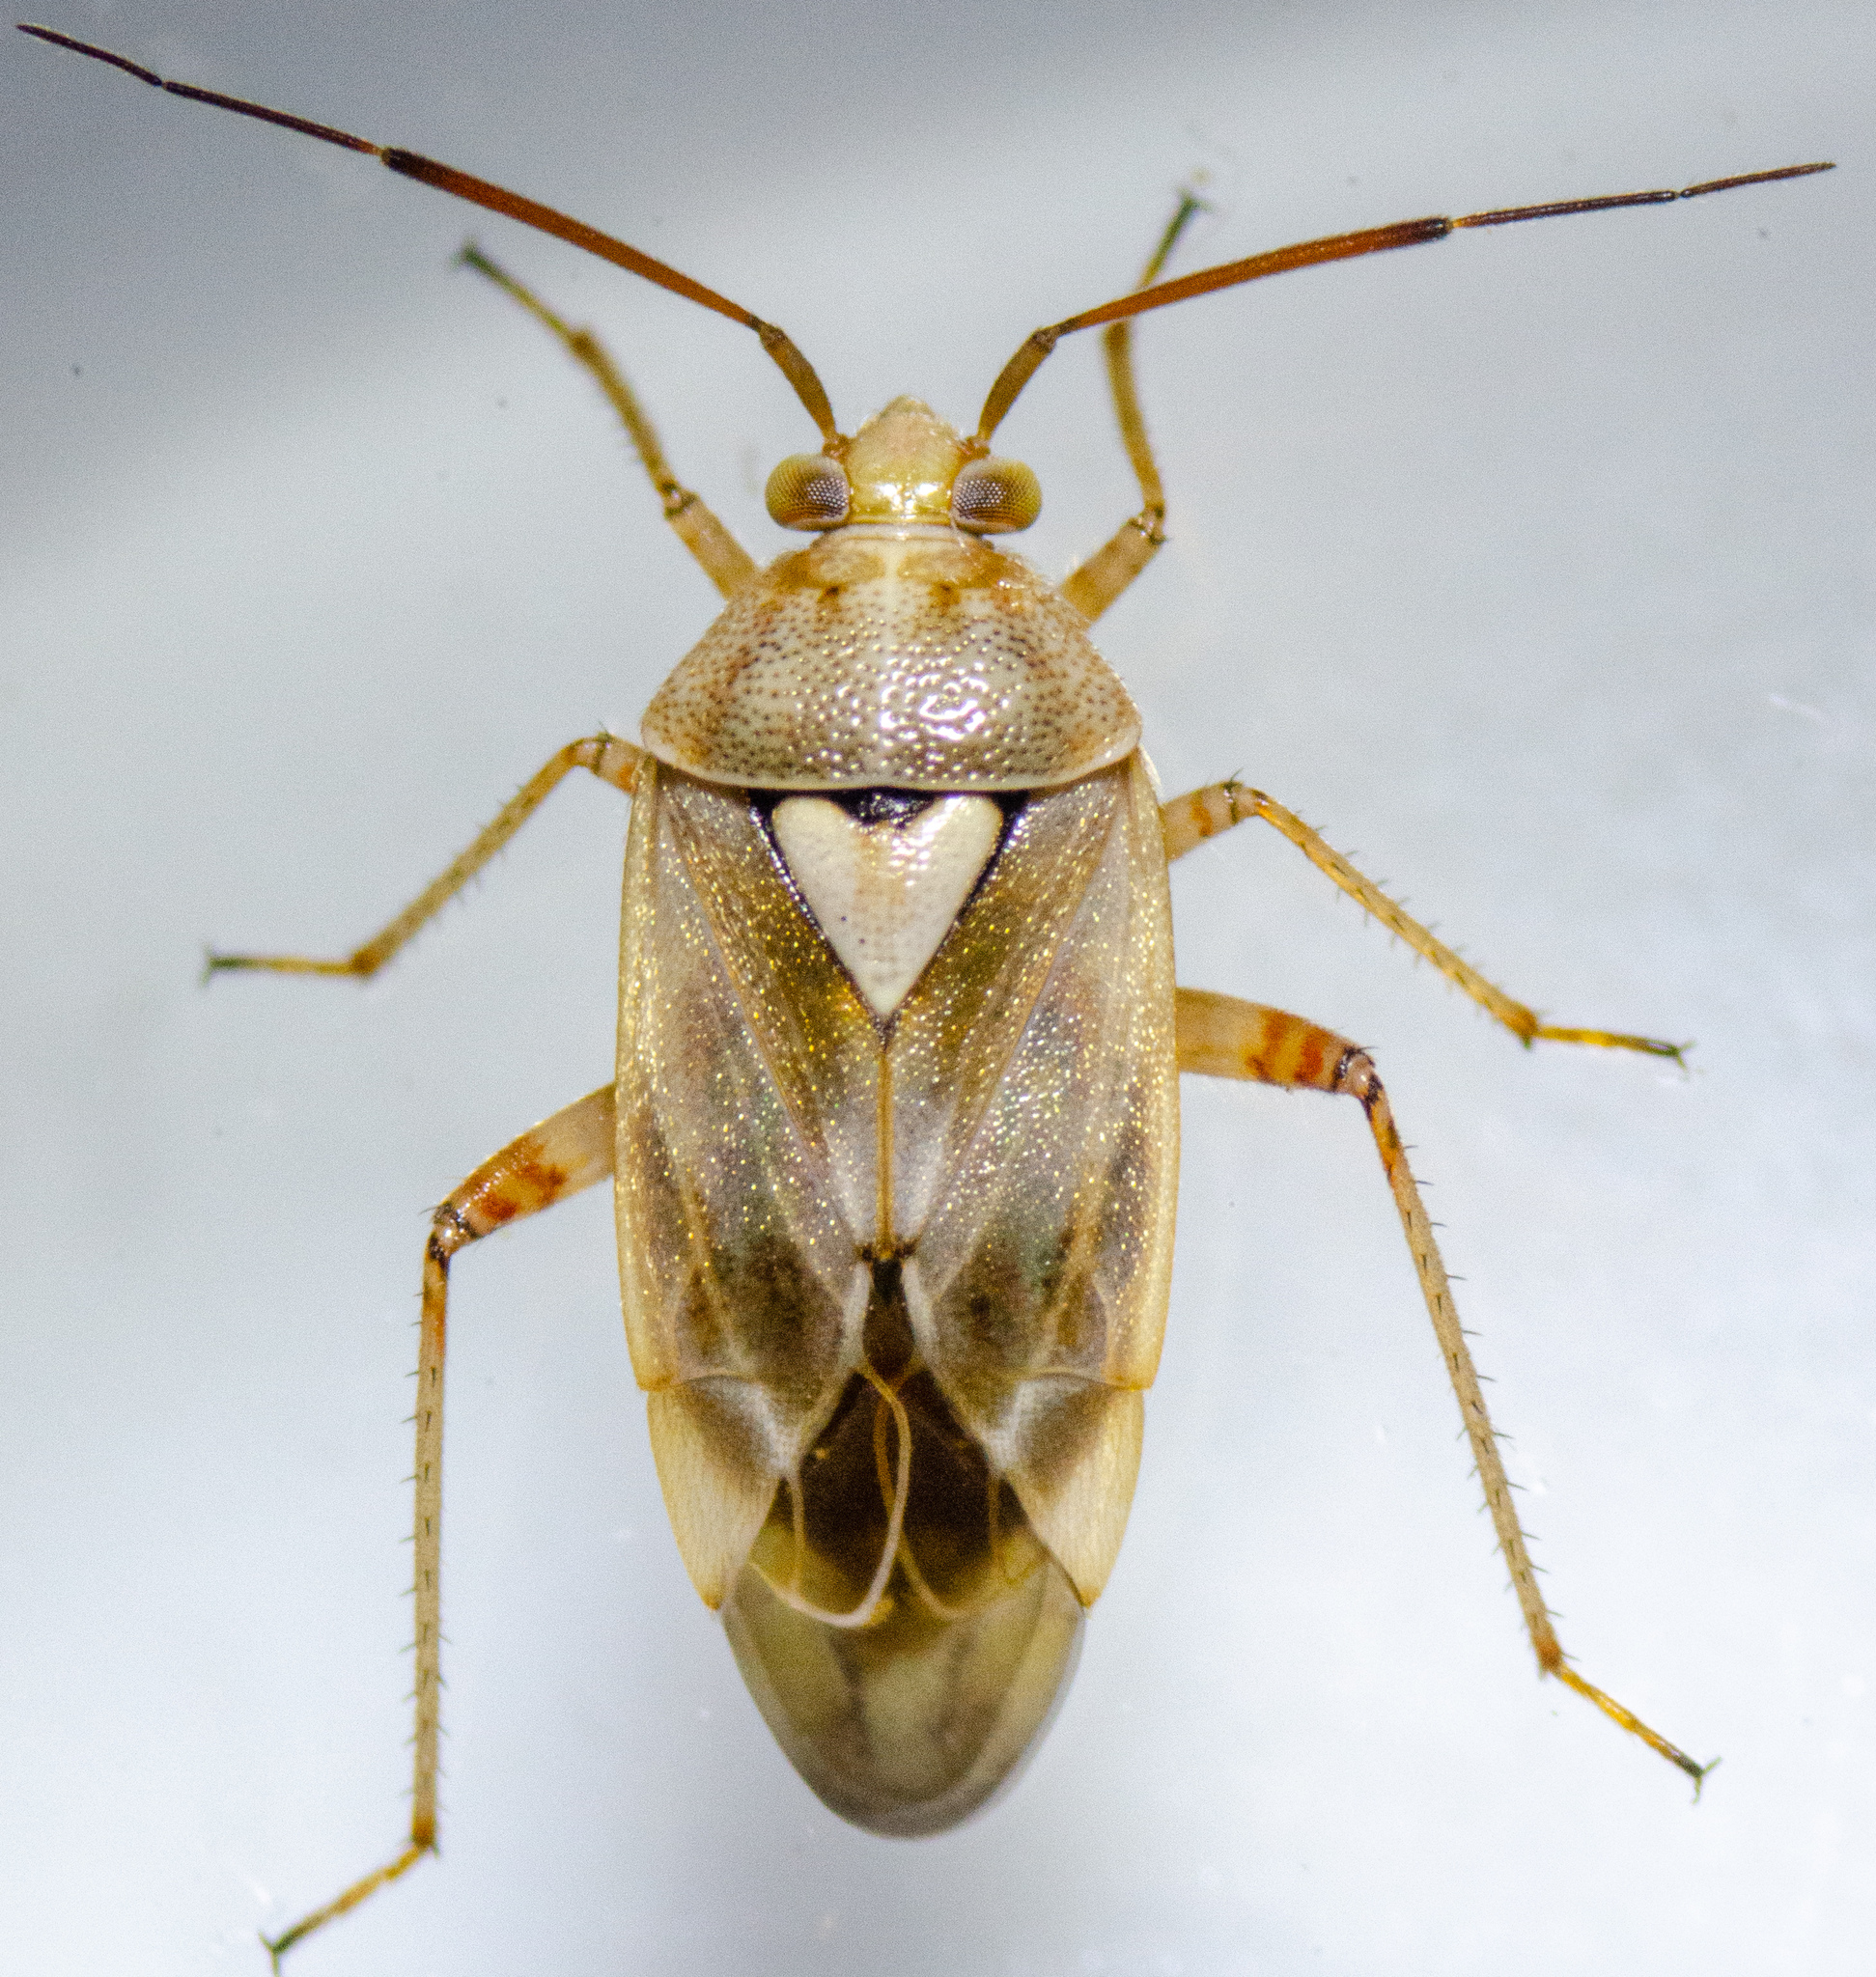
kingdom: Animalia
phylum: Arthropoda
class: Insecta
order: Hemiptera
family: Miridae
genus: Lygus
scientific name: Lygus hesperus
